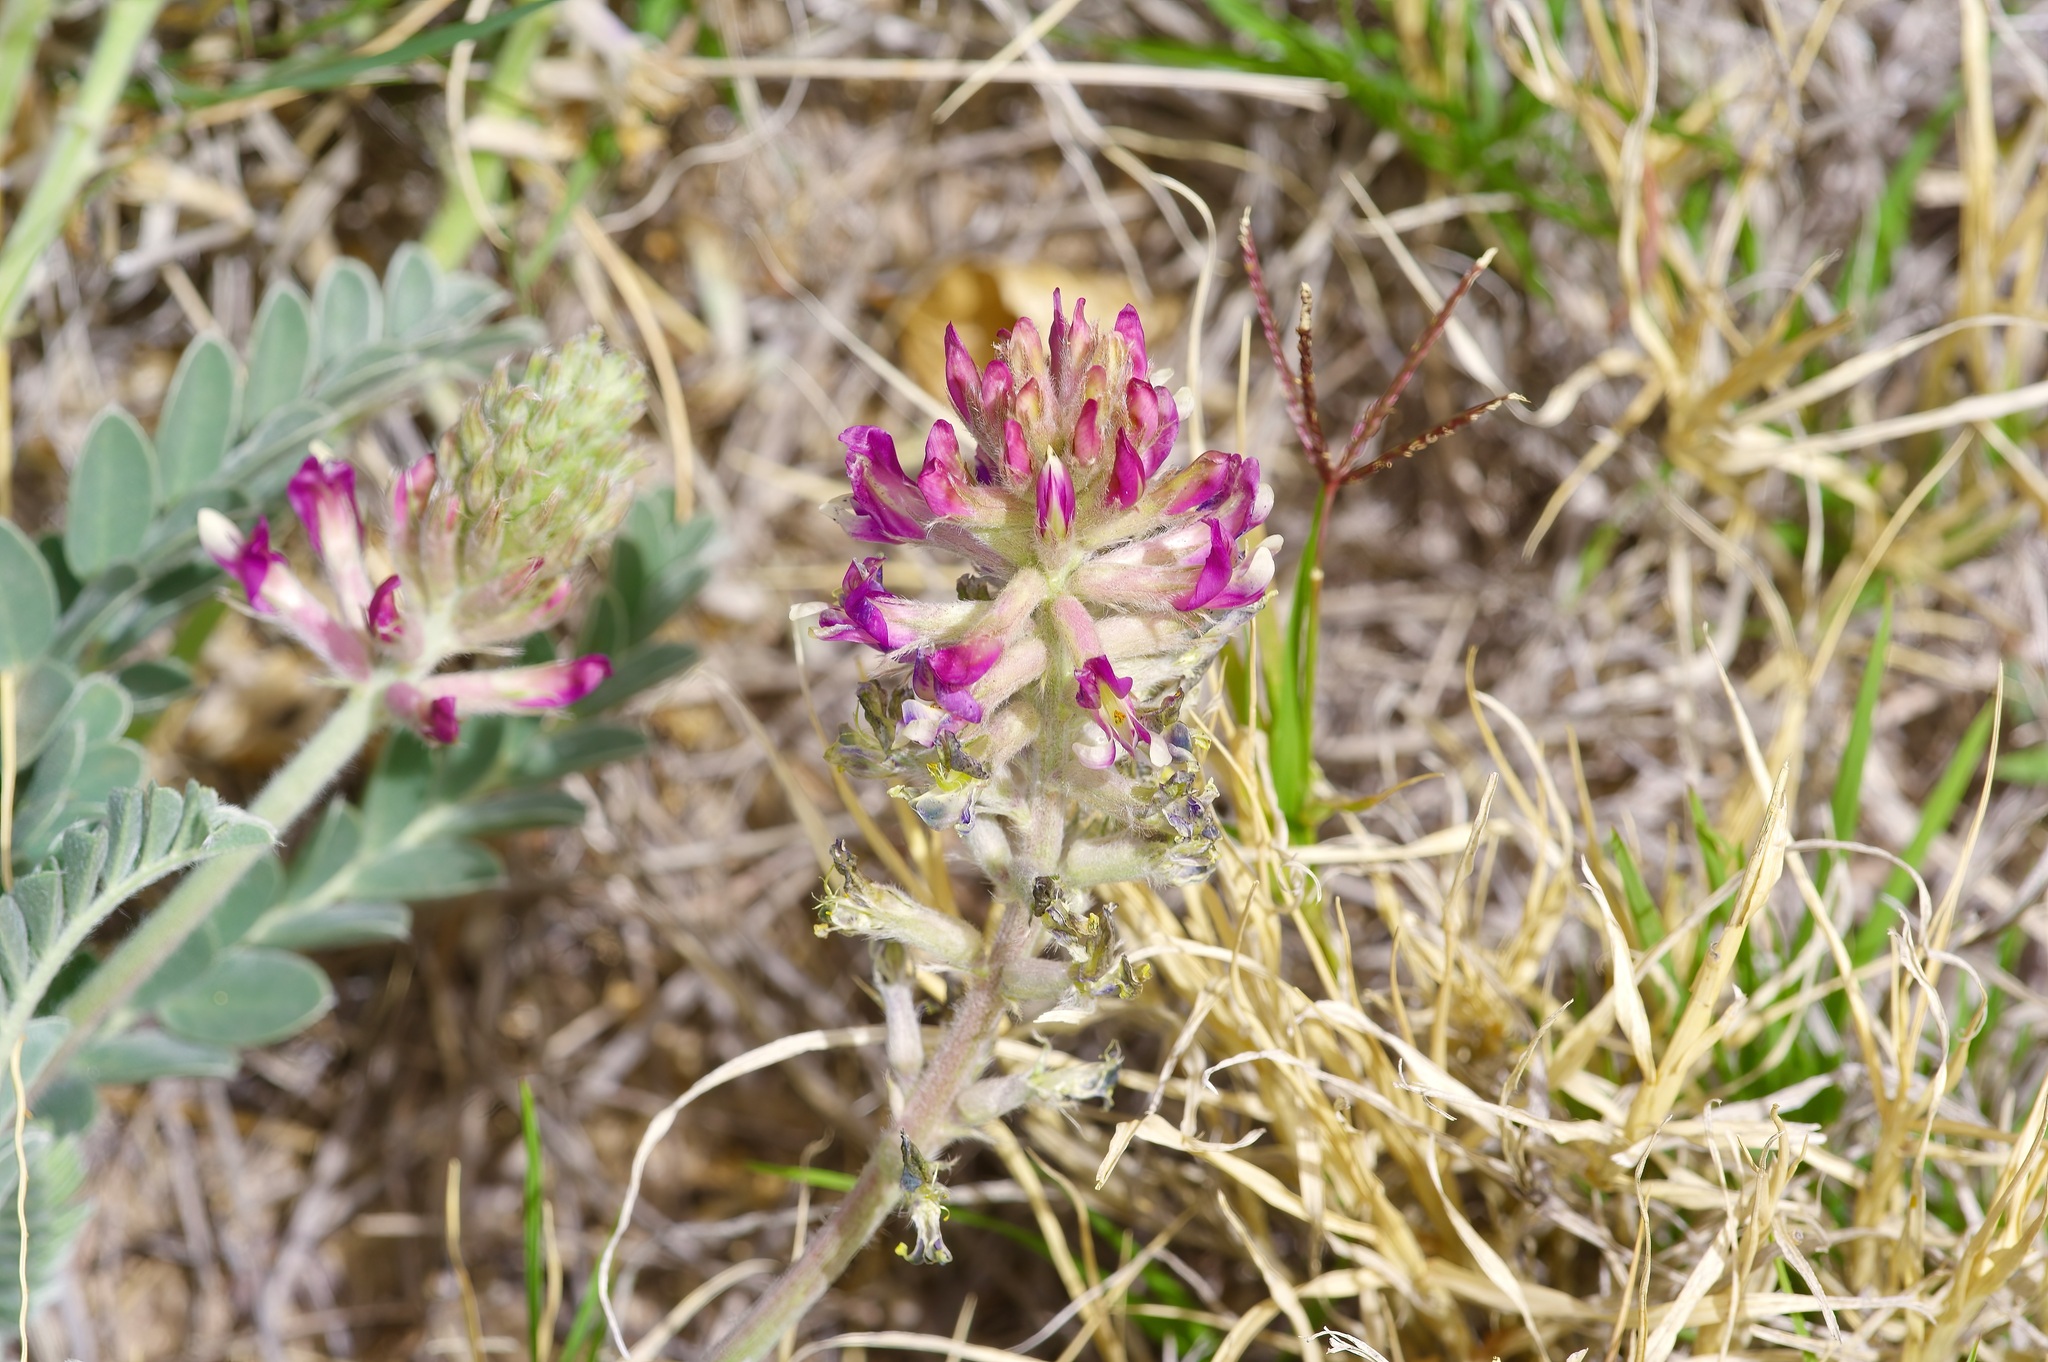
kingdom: Plantae
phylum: Tracheophyta
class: Magnoliopsida
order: Fabales
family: Fabaceae
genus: Astragalus
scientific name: Astragalus mollissimus
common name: Woolly locoweed
